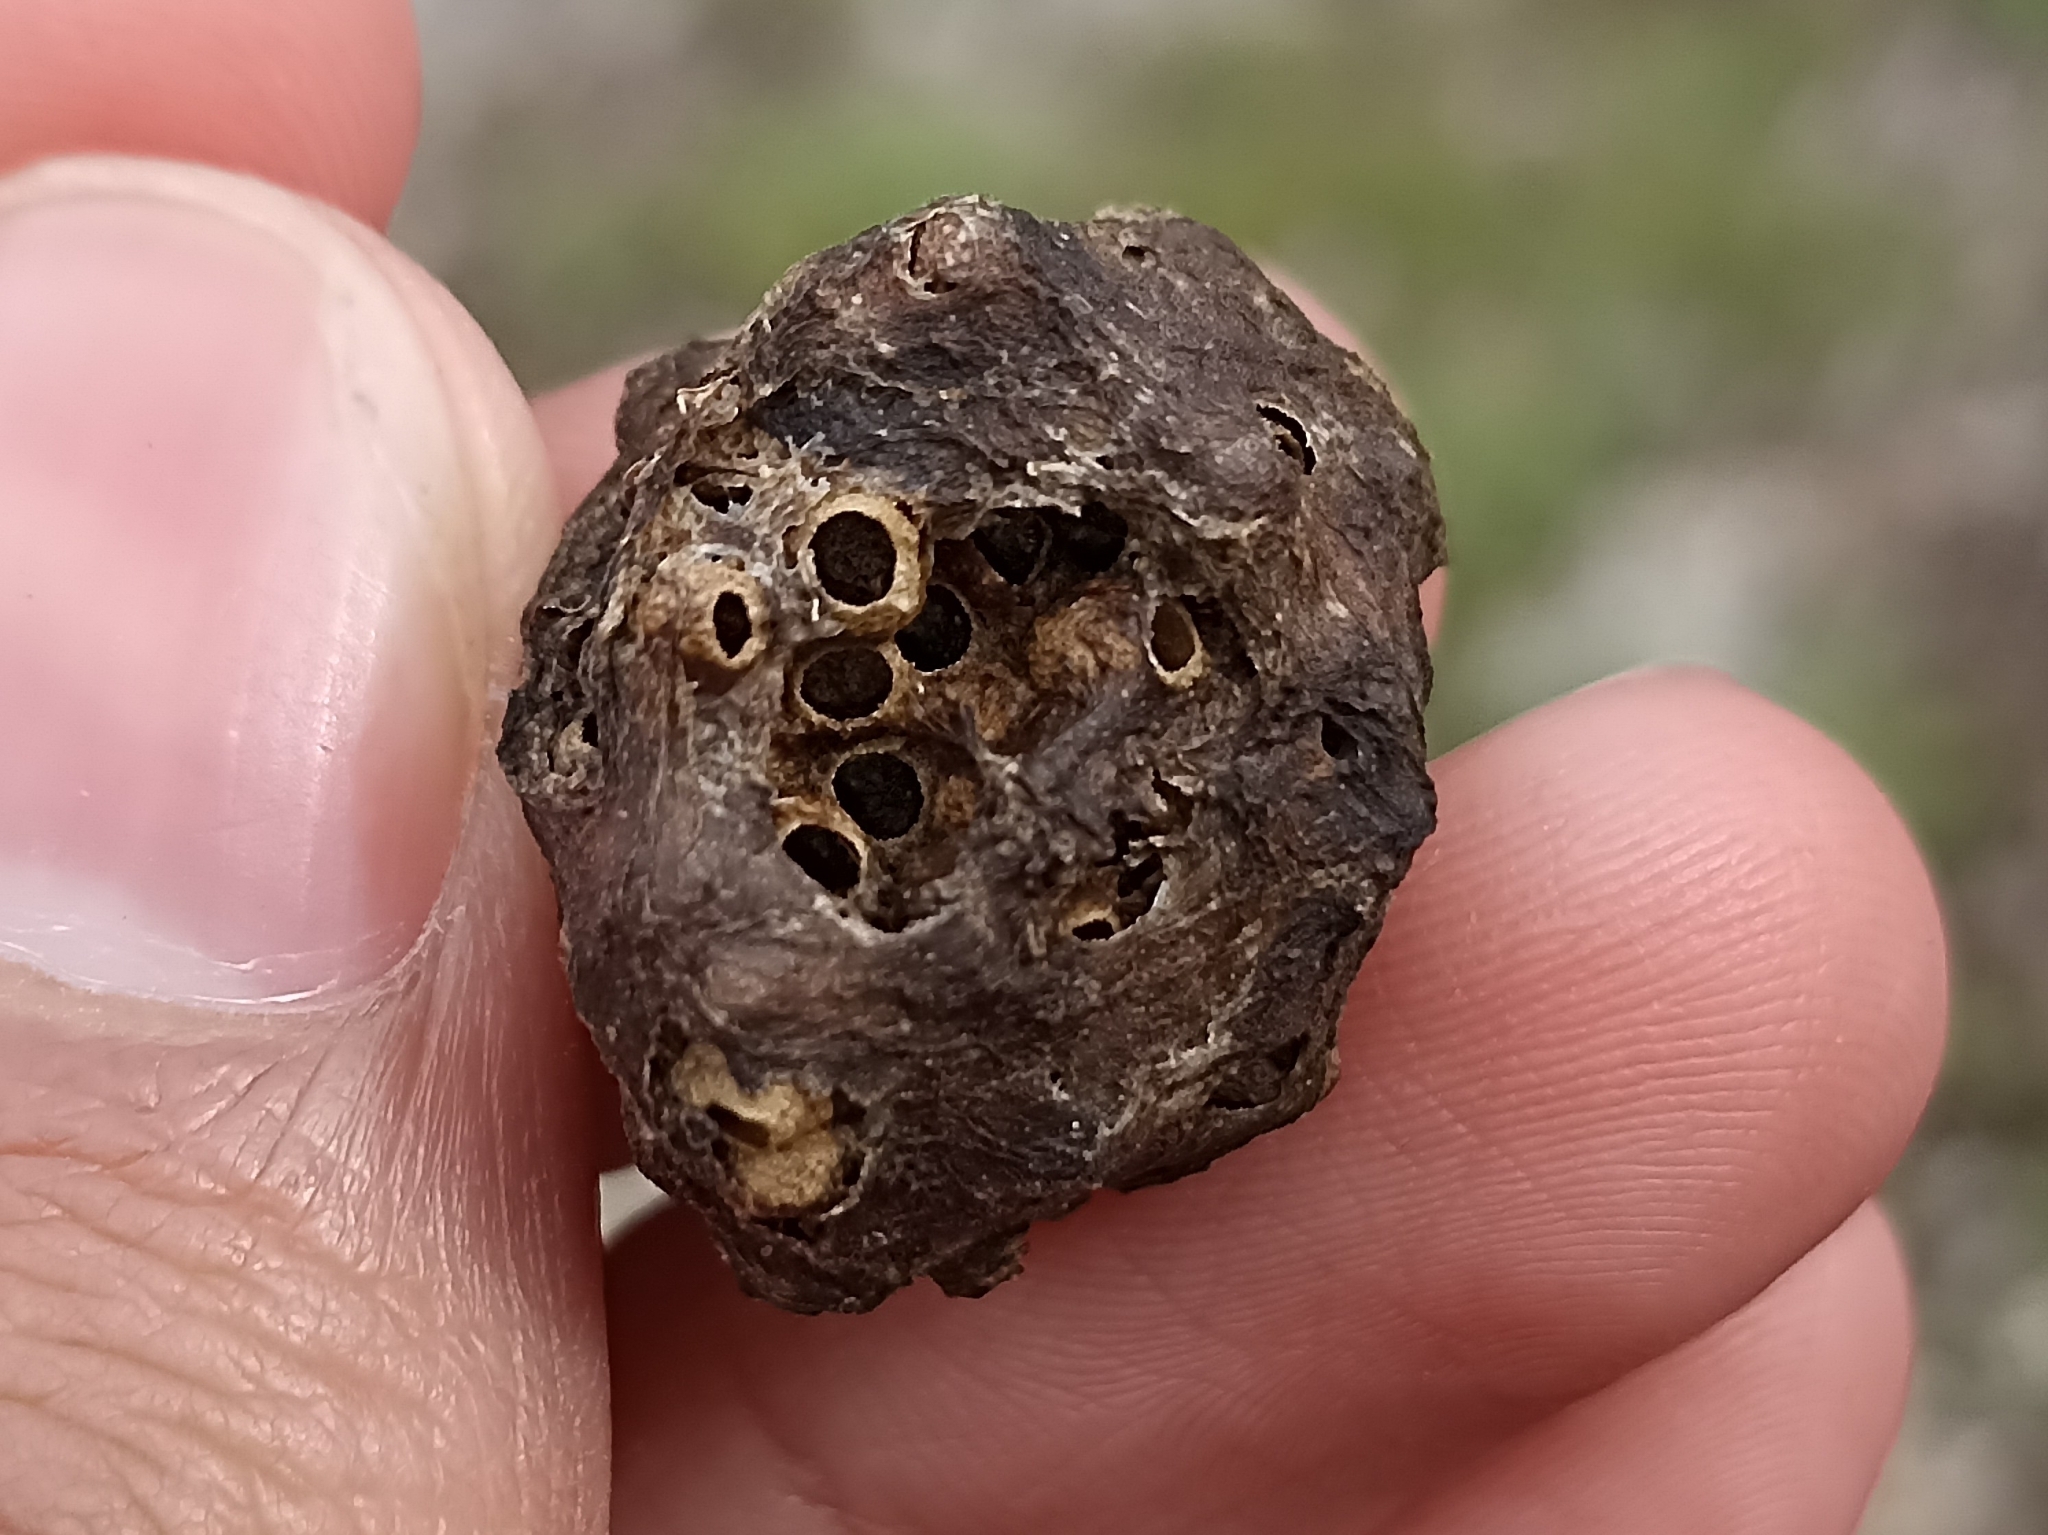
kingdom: Animalia
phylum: Arthropoda
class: Insecta
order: Hymenoptera
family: Cynipidae
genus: Biorhiza
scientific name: Biorhiza pallida
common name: Oak apple
